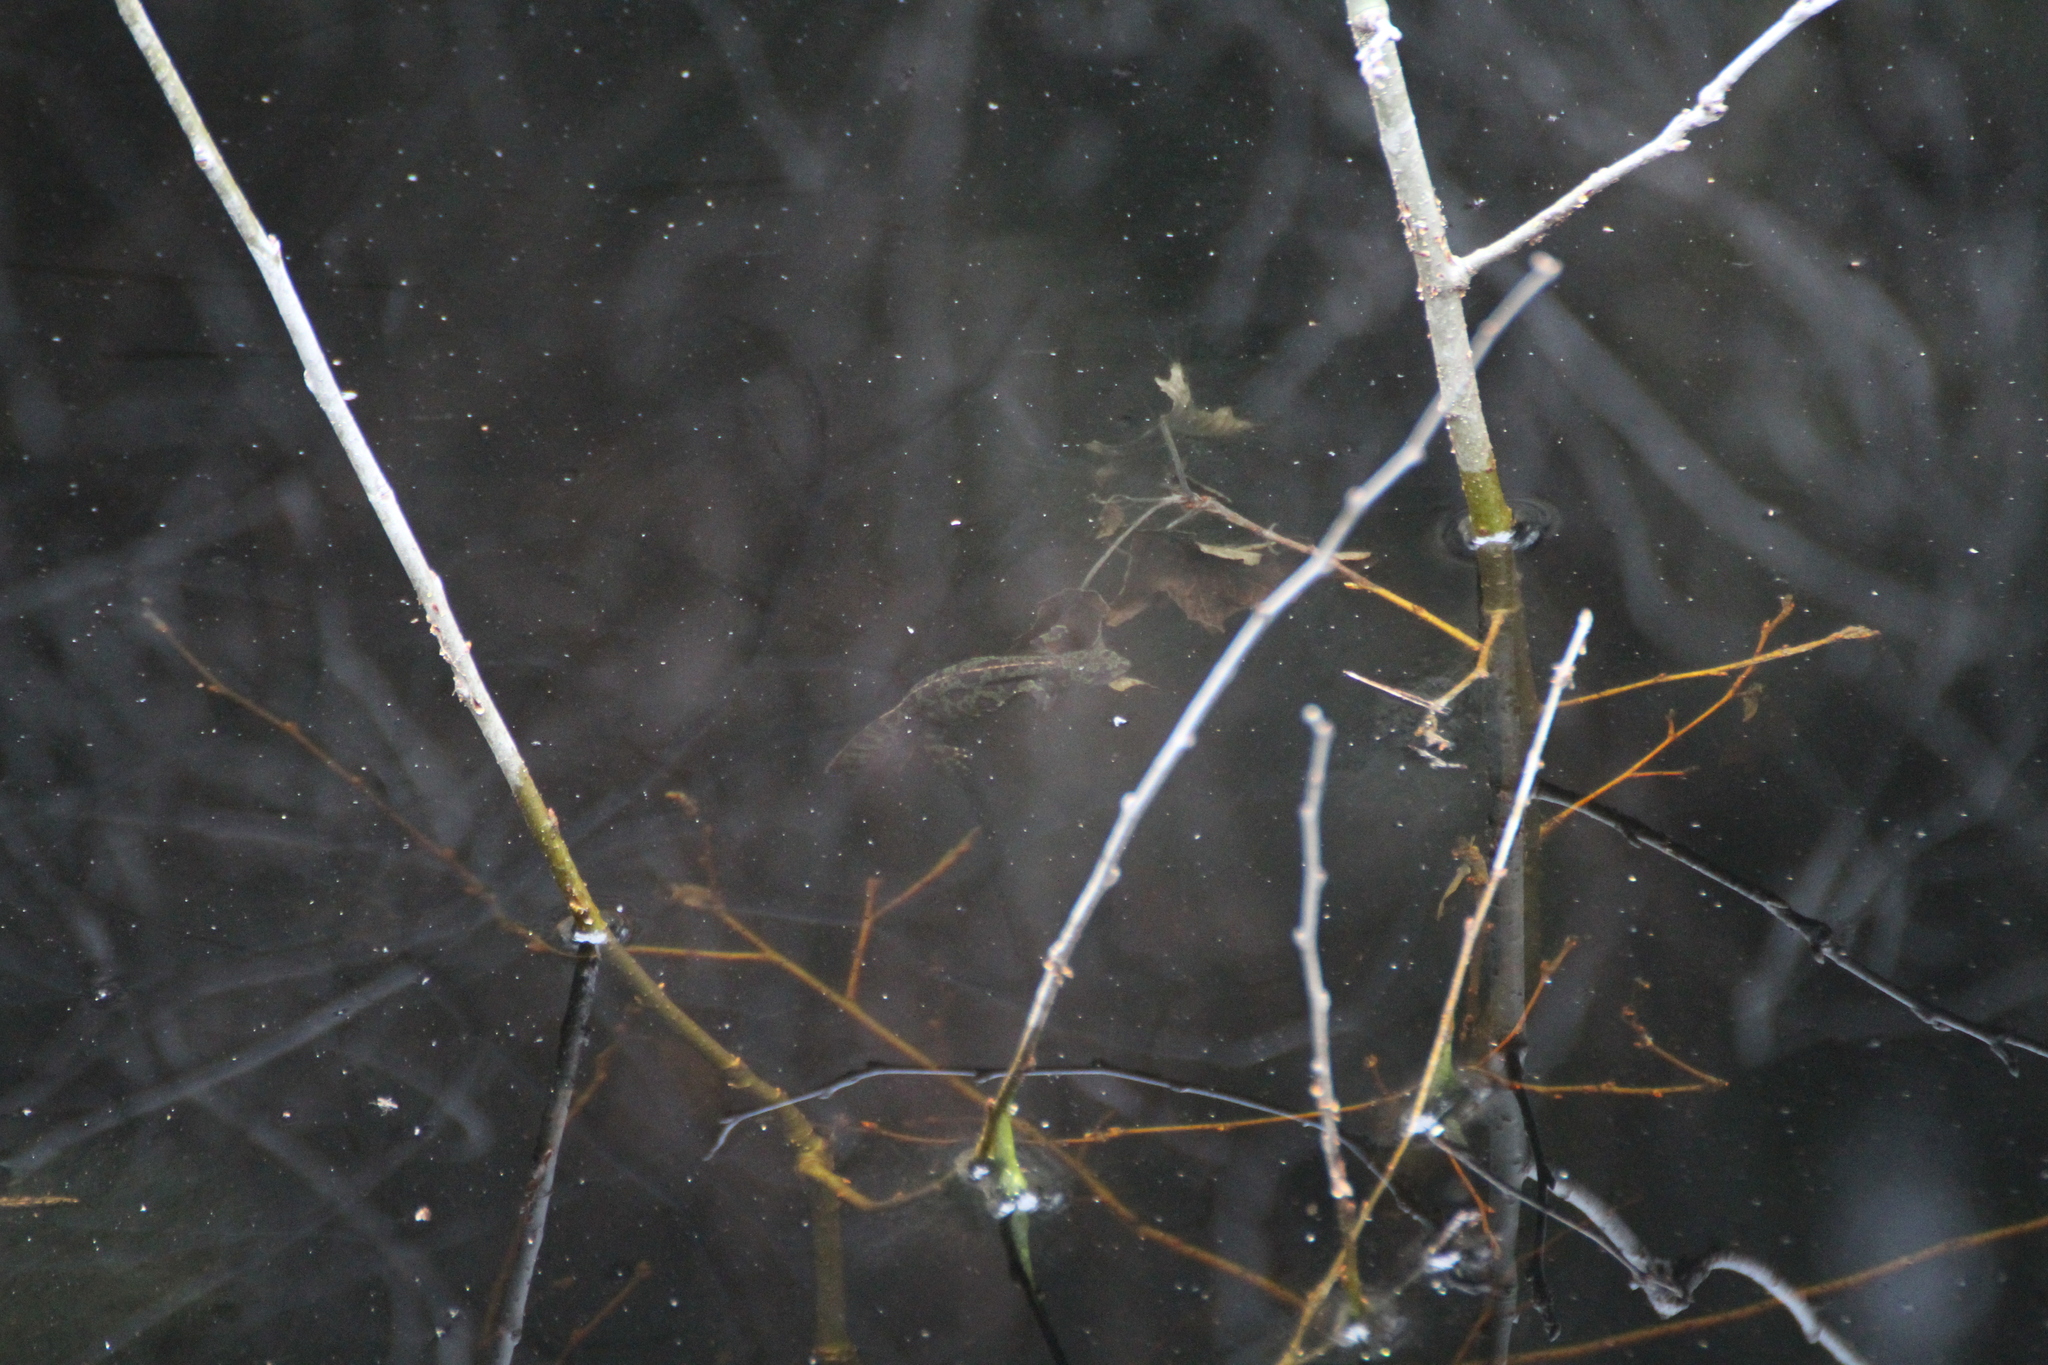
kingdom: Animalia
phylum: Chordata
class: Amphibia
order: Caudata
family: Salamandridae
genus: Triturus
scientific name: Triturus marmoratus
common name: Marbled newt
